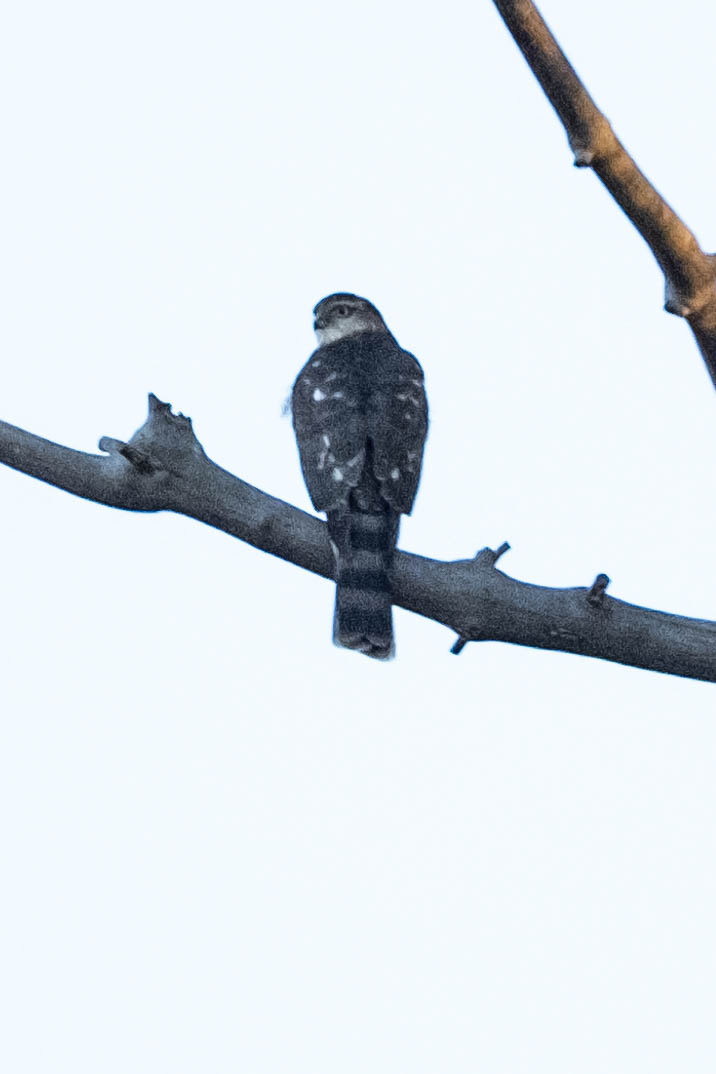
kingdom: Animalia
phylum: Chordata
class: Aves
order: Accipitriformes
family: Accipitridae
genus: Accipiter
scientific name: Accipiter striatus
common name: Sharp-shinned hawk
